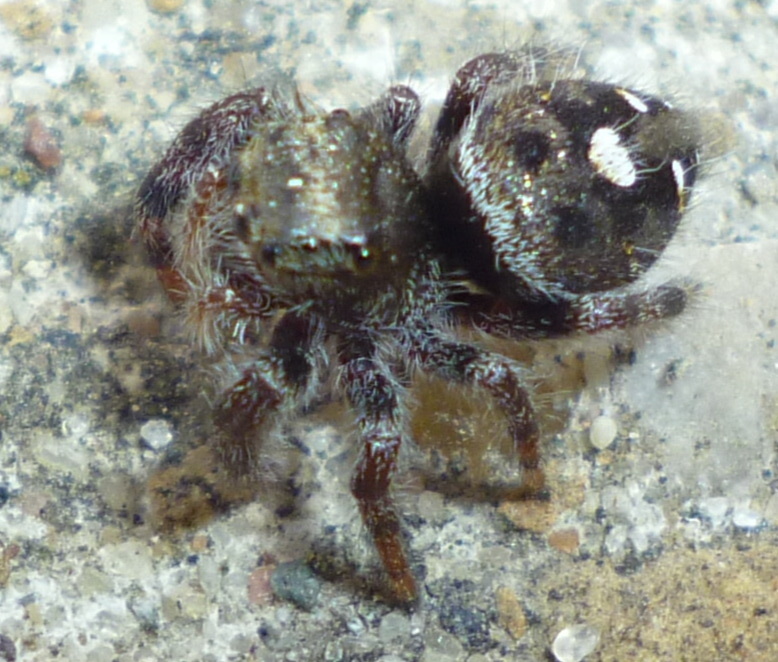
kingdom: Animalia
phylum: Arthropoda
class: Arachnida
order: Araneae
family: Salticidae
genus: Phidippus
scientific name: Phidippus audax
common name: Bold jumper
